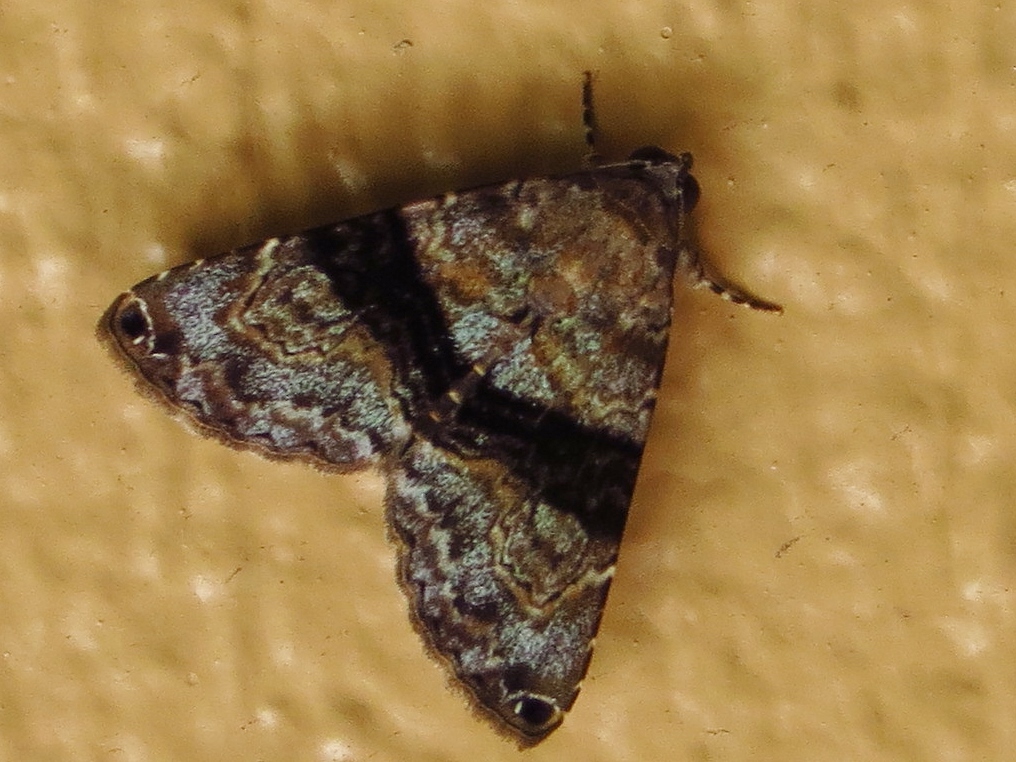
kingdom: Animalia
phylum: Arthropoda
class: Insecta
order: Lepidoptera
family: Erebidae
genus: Acolasis
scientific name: Acolasis bibitrix
